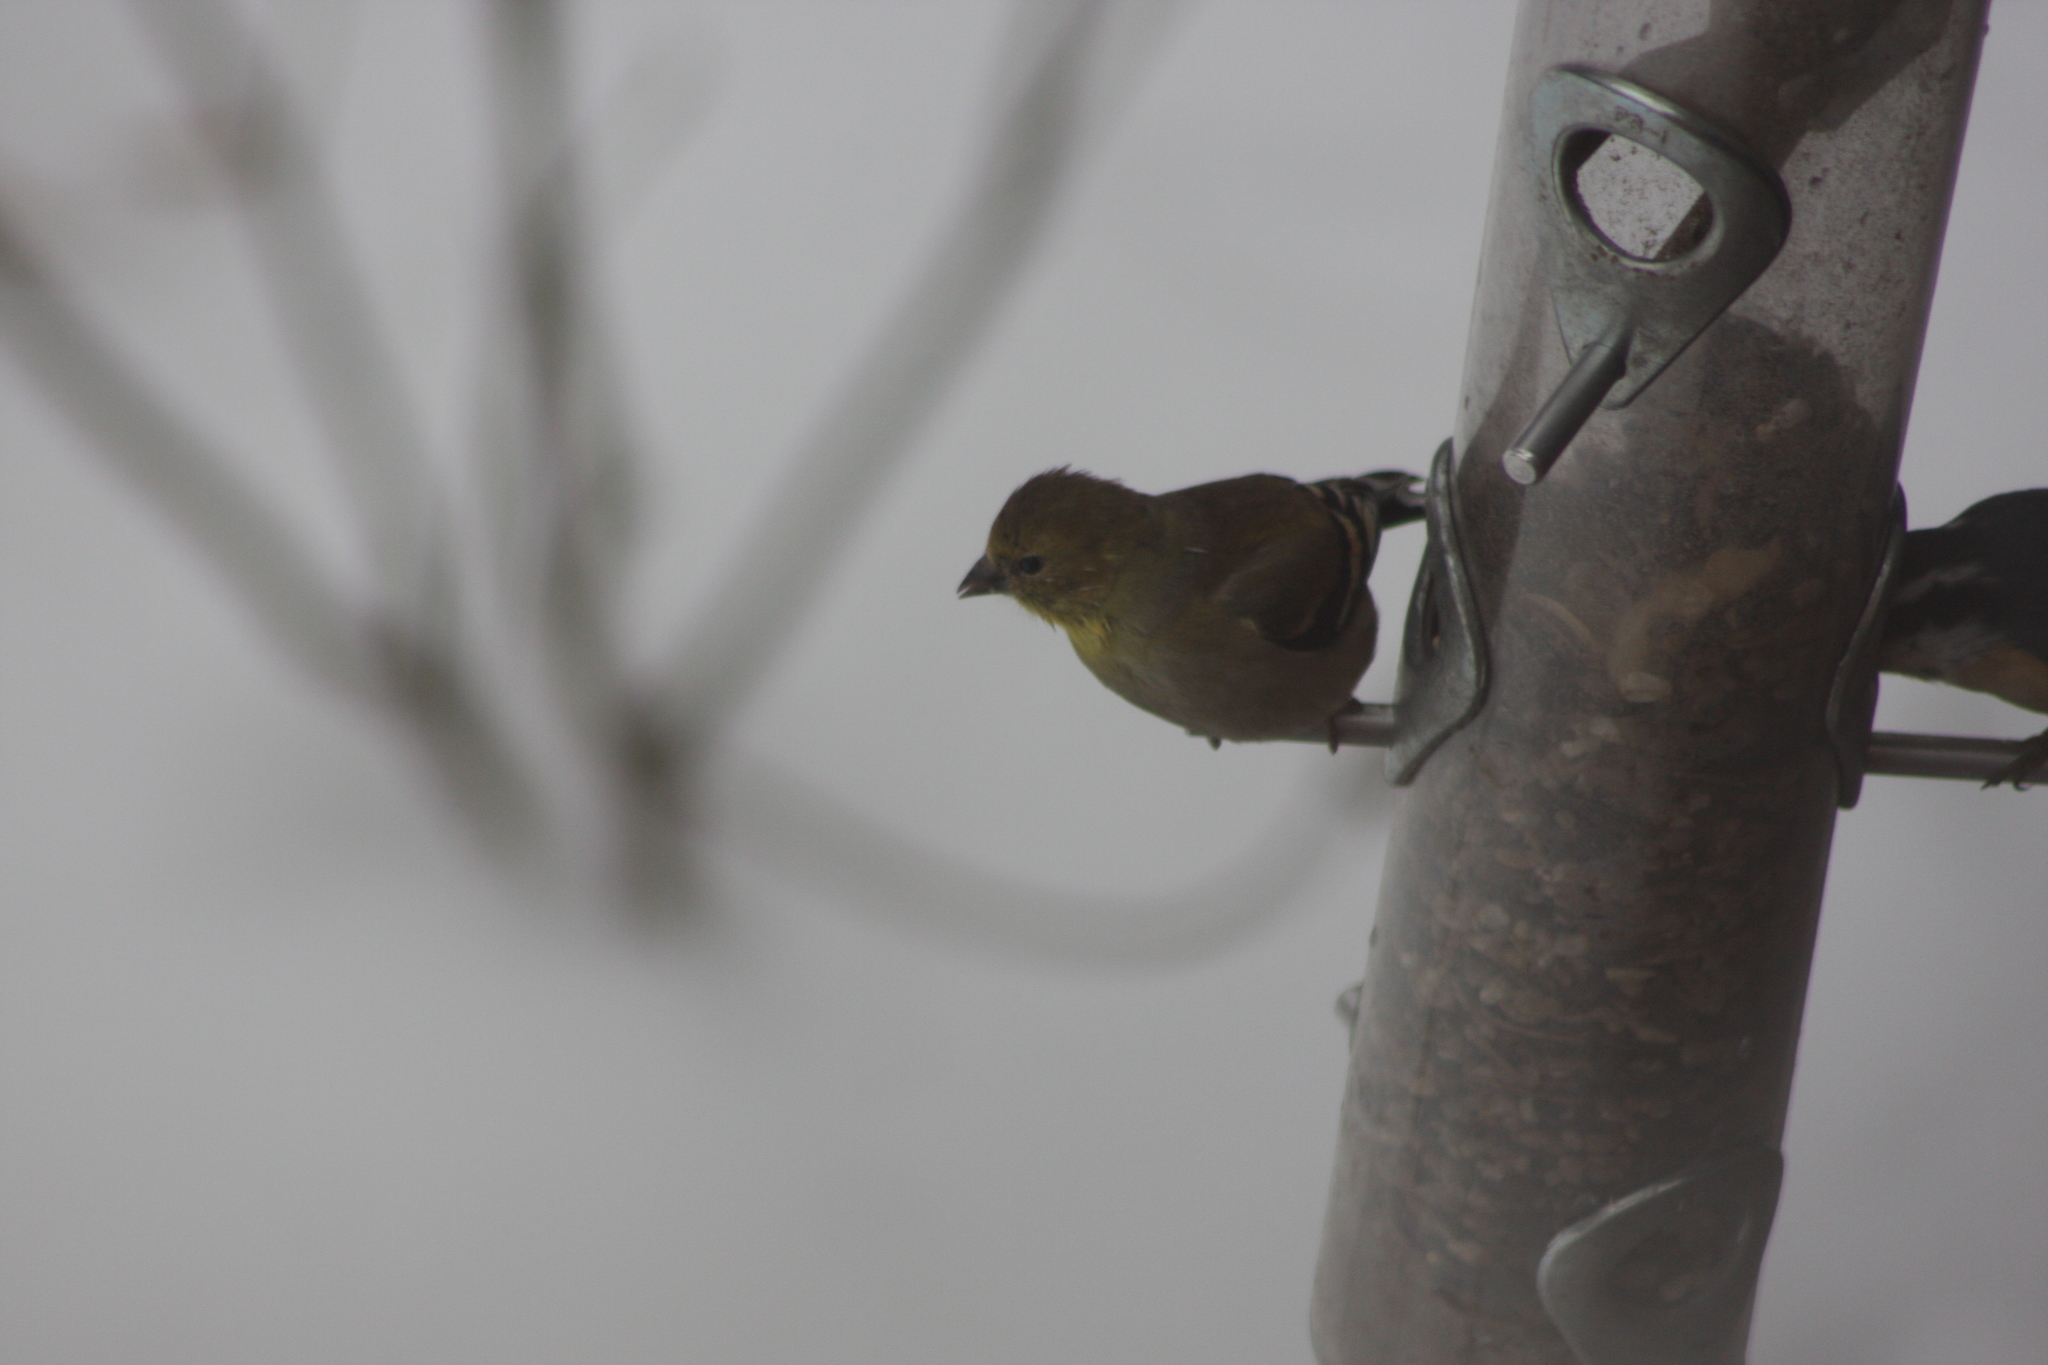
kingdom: Animalia
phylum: Chordata
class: Aves
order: Passeriformes
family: Fringillidae
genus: Spinus
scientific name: Spinus tristis
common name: American goldfinch
